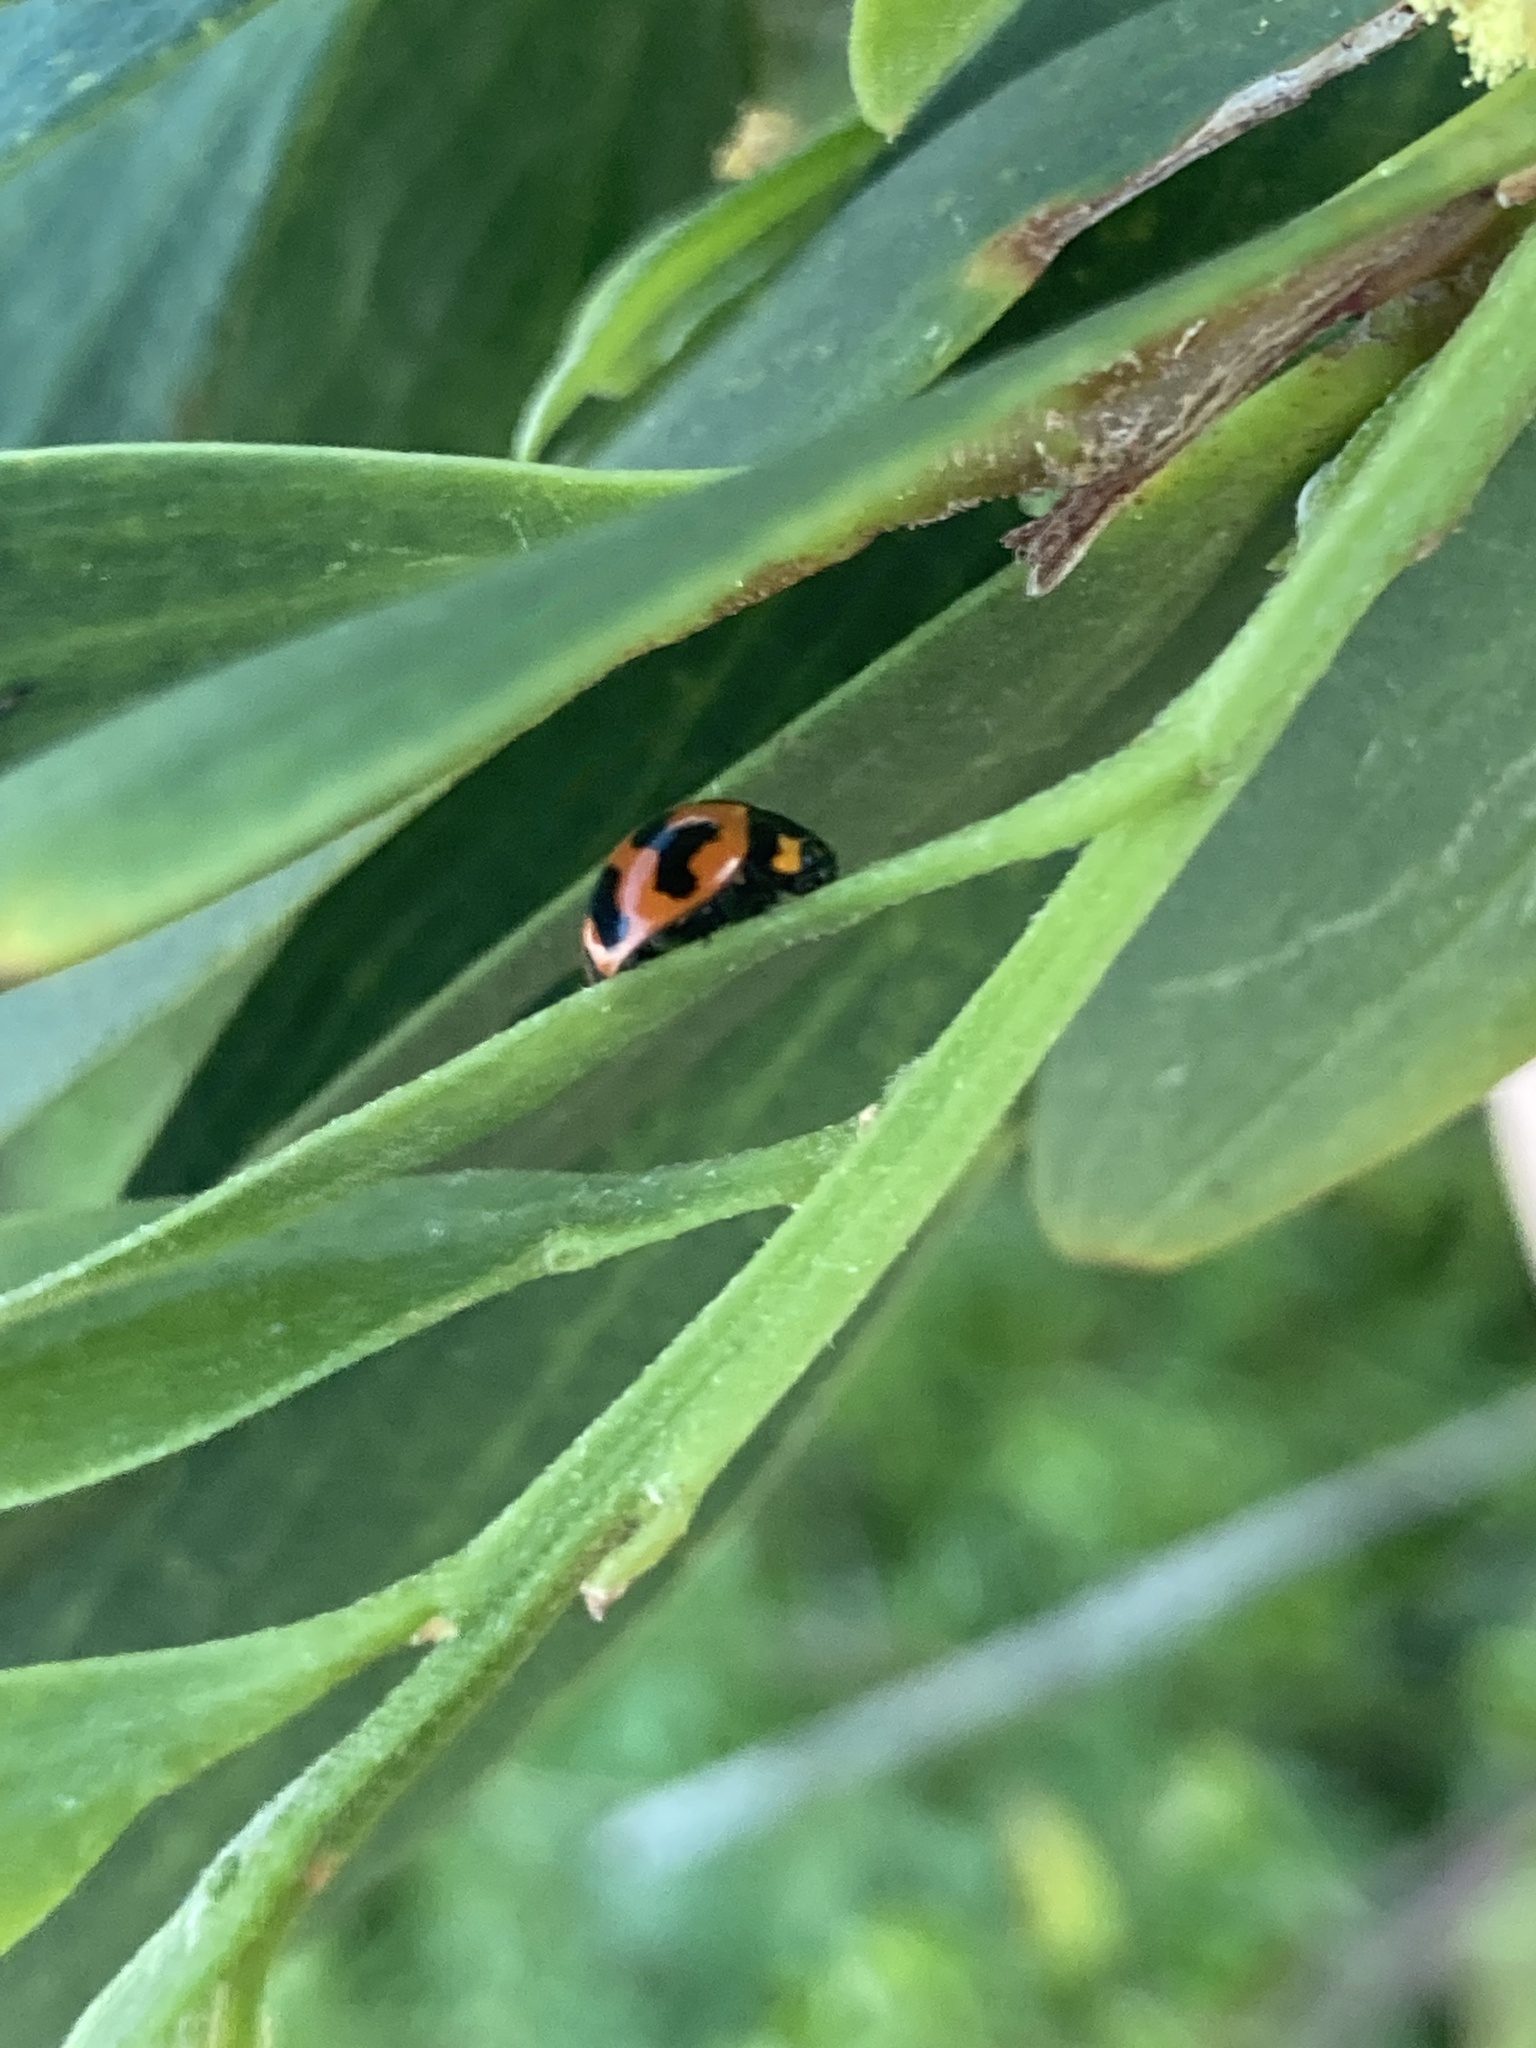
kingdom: Animalia
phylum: Arthropoda
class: Insecta
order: Coleoptera
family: Coccinellidae
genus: Coccinella
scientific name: Coccinella transversalis
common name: Transverse lady beetle
